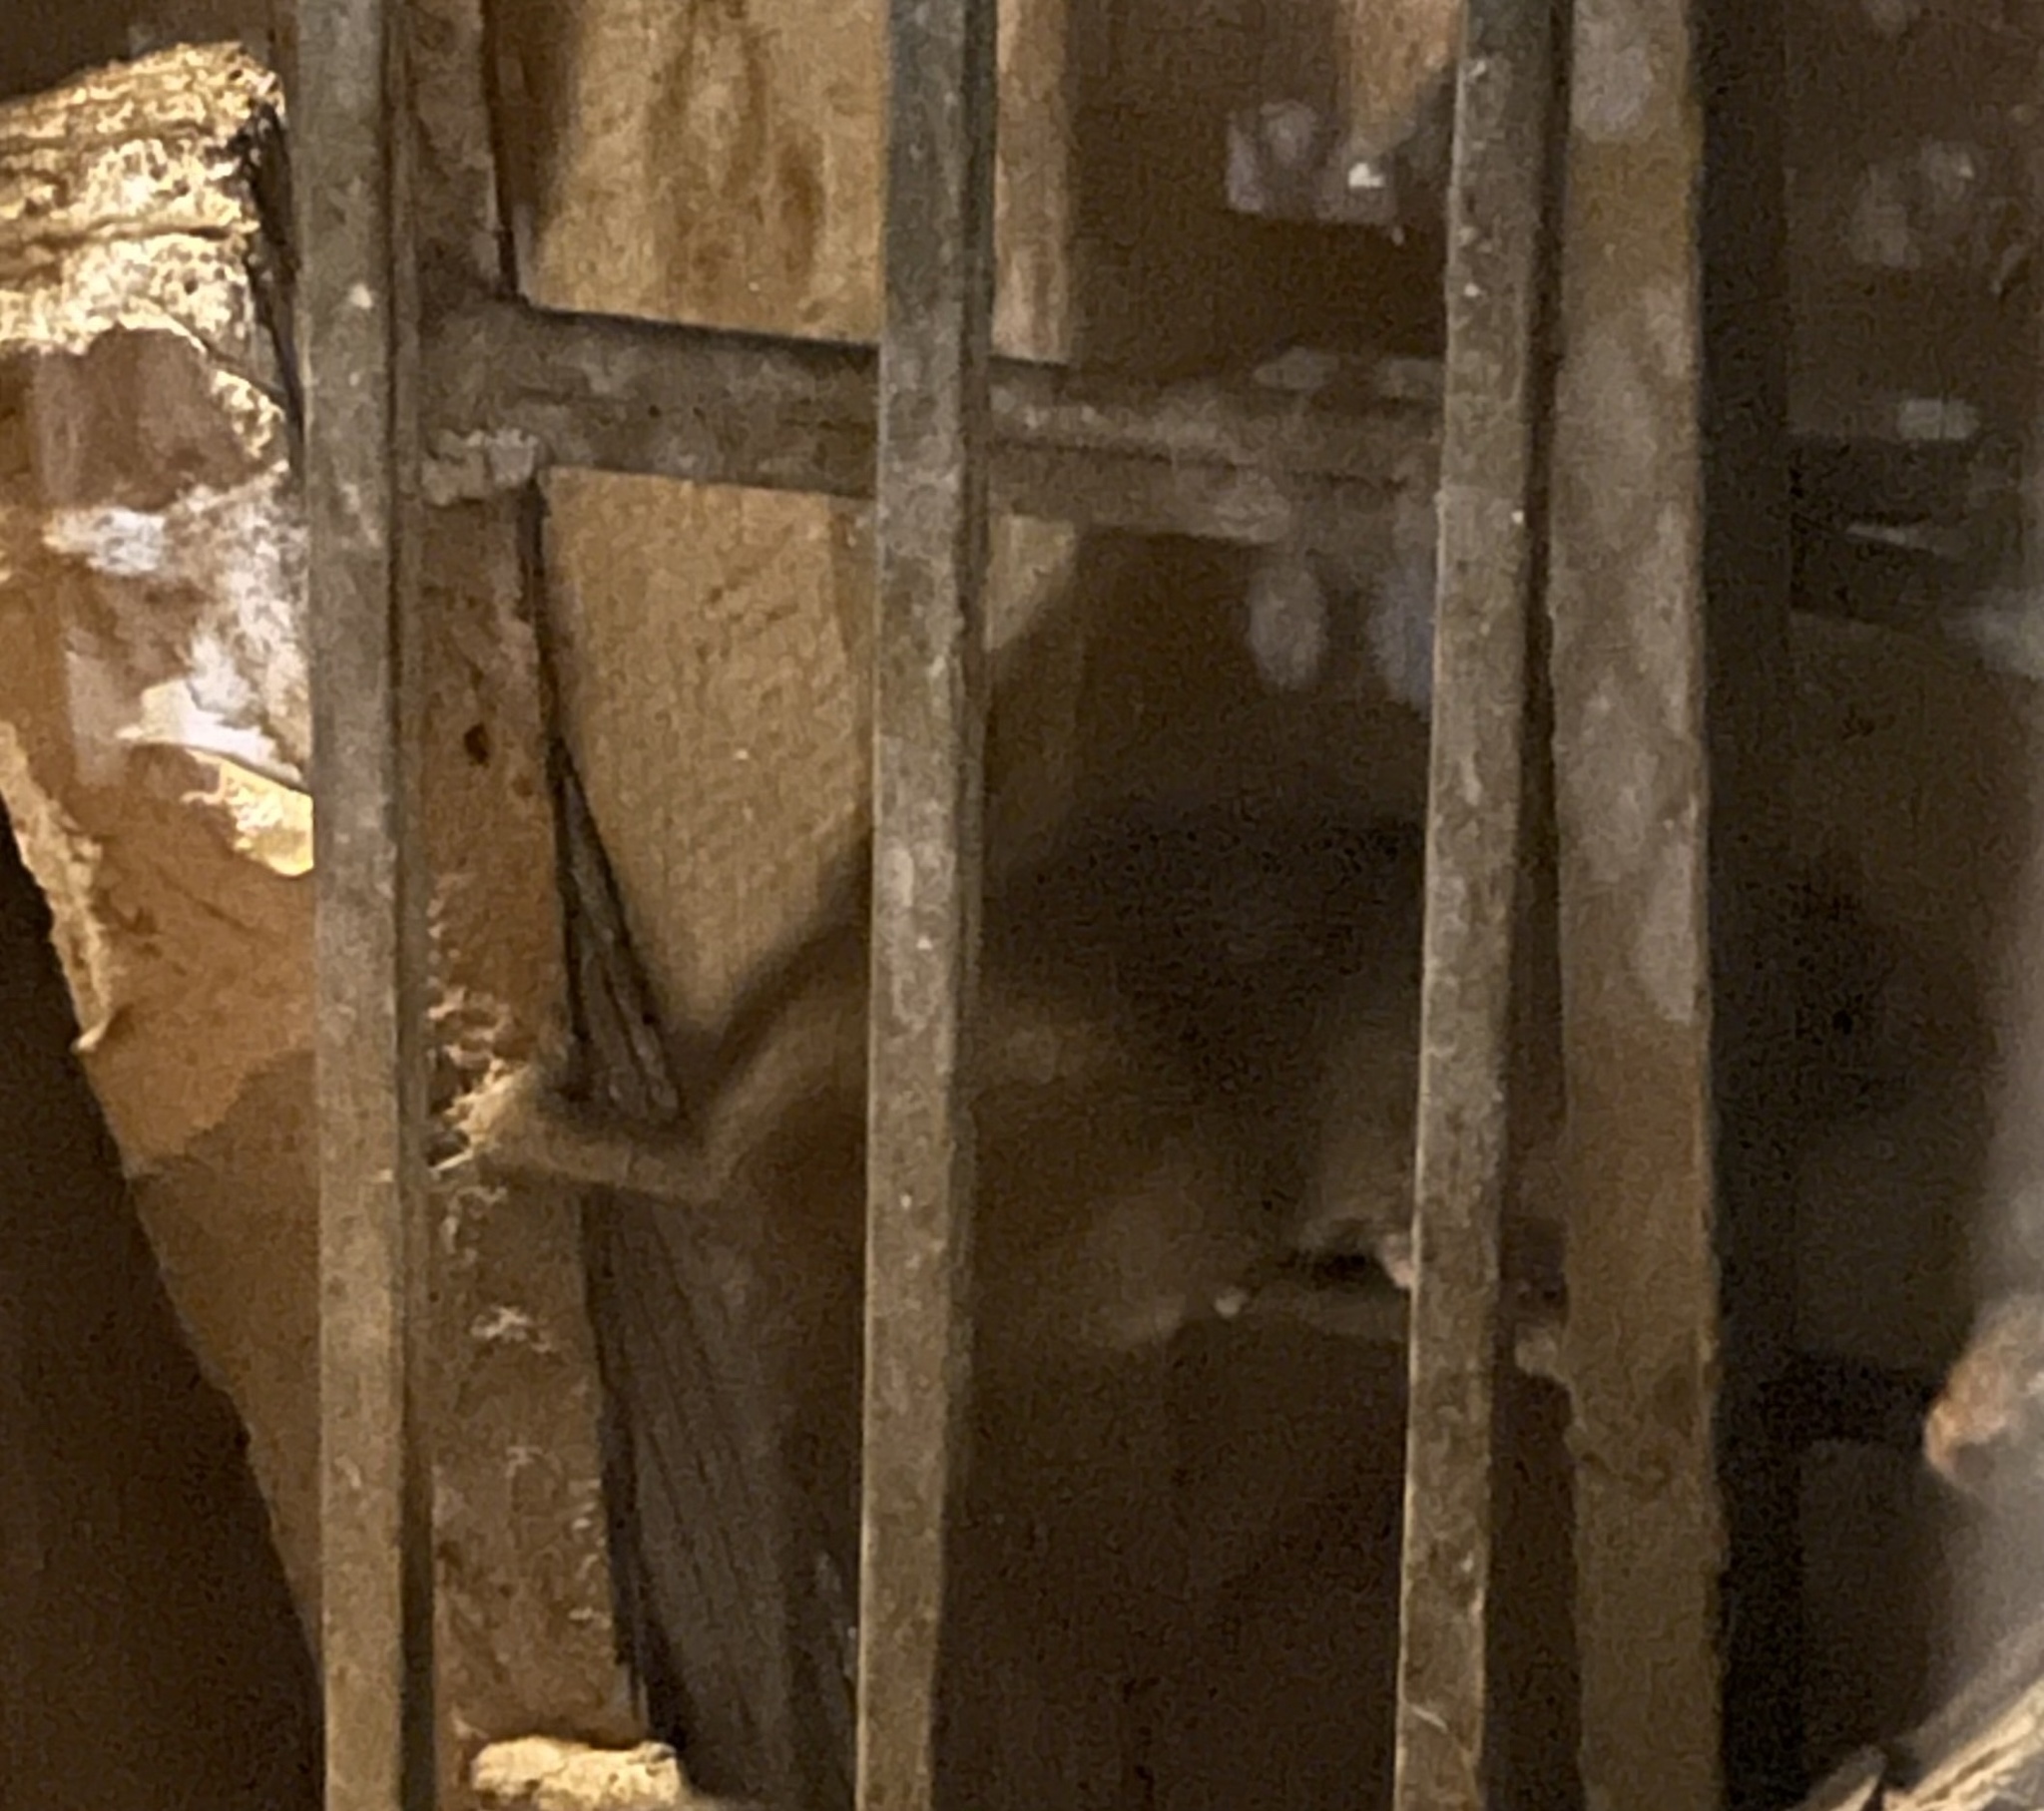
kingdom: Animalia
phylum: Chordata
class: Mammalia
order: Rodentia
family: Muridae
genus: Rattus
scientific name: Rattus norvegicus
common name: Brown rat
